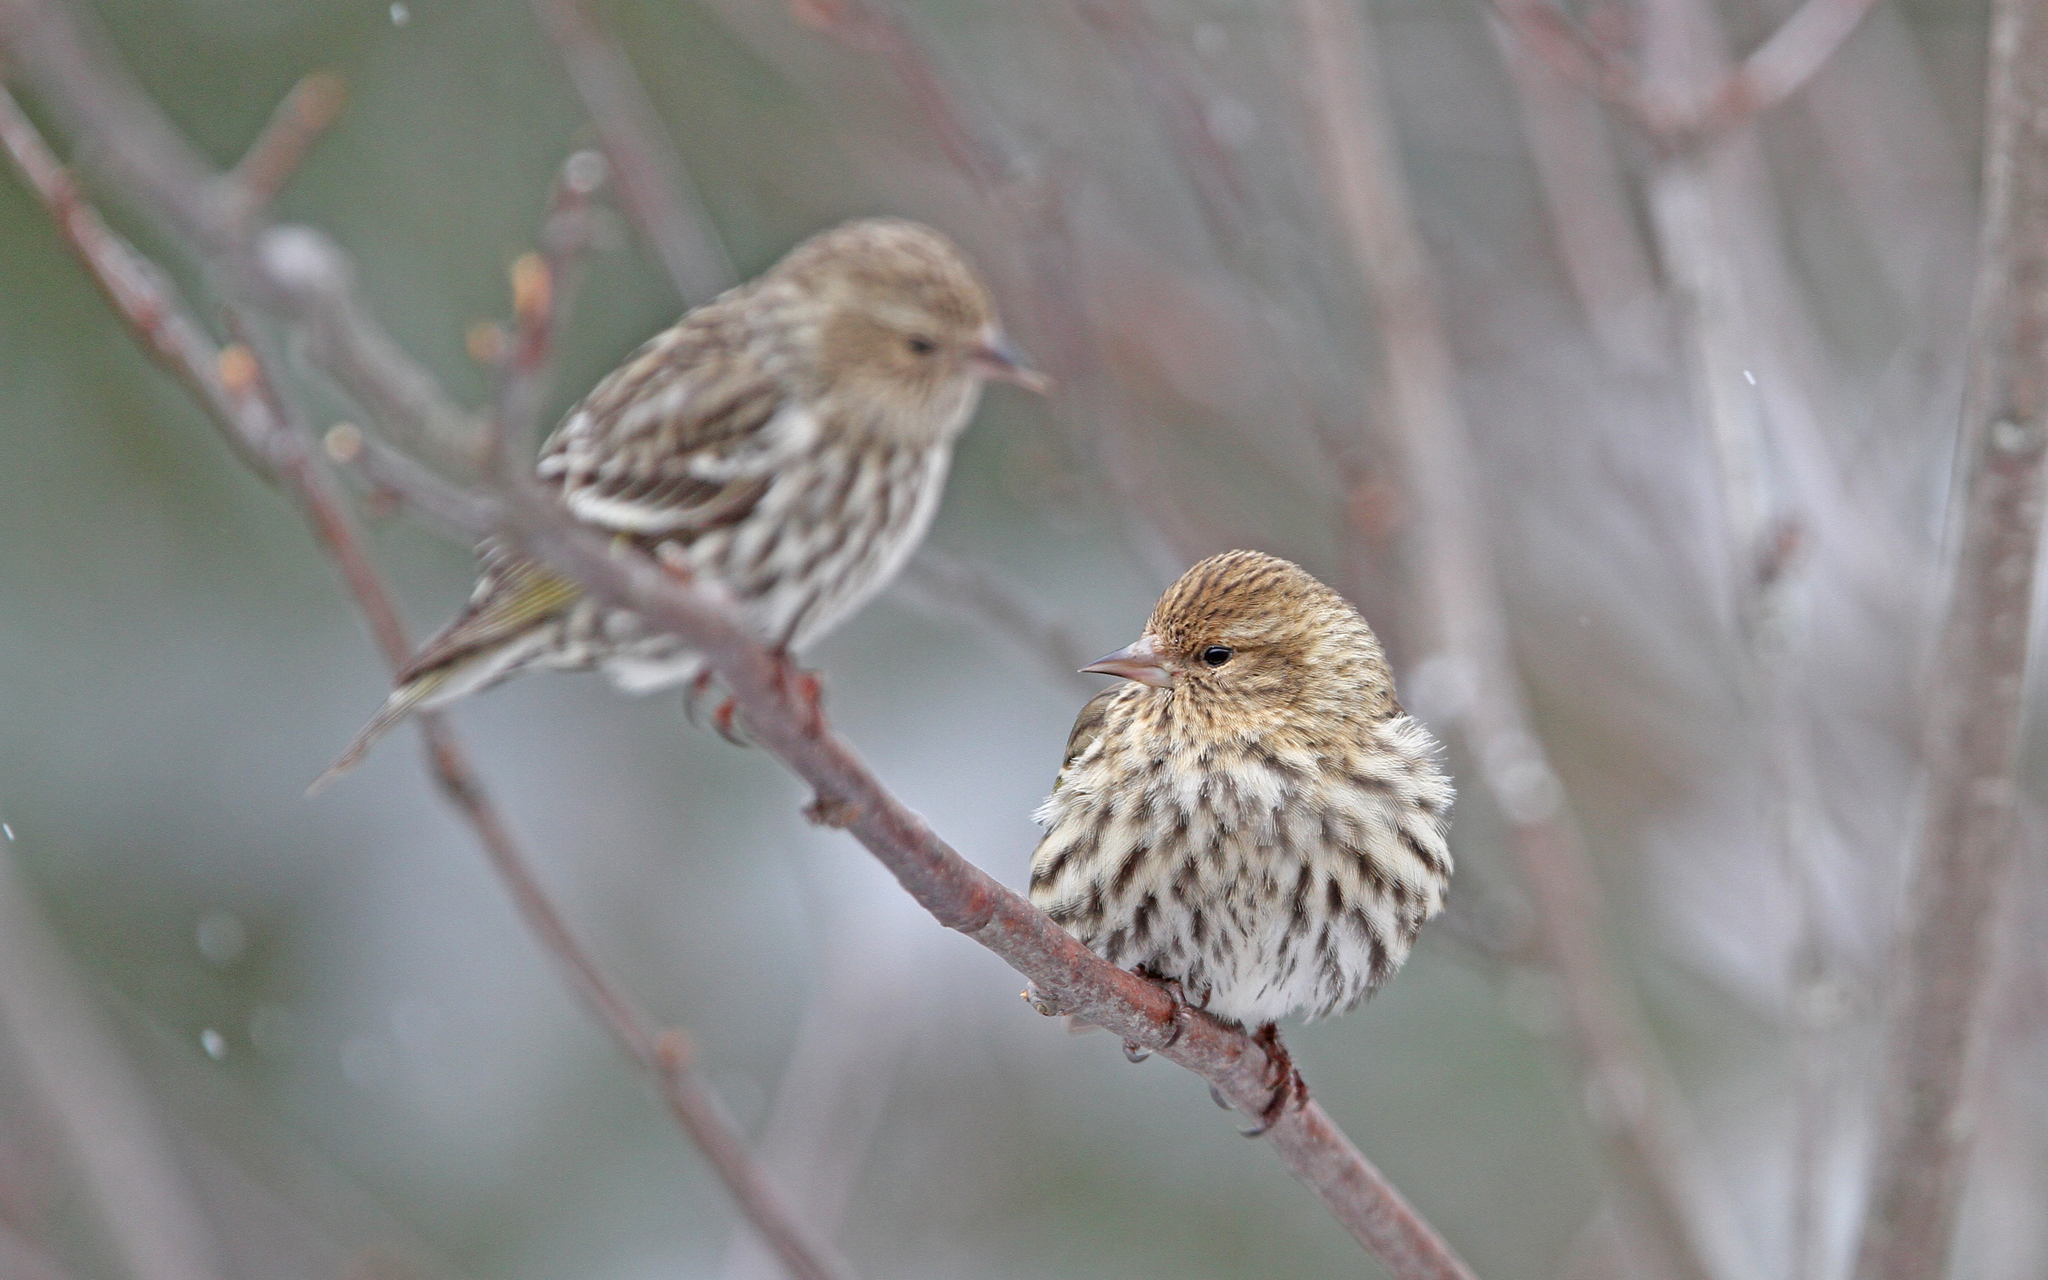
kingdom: Animalia
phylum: Chordata
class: Aves
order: Passeriformes
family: Fringillidae
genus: Spinus
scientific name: Spinus pinus
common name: Pine siskin
